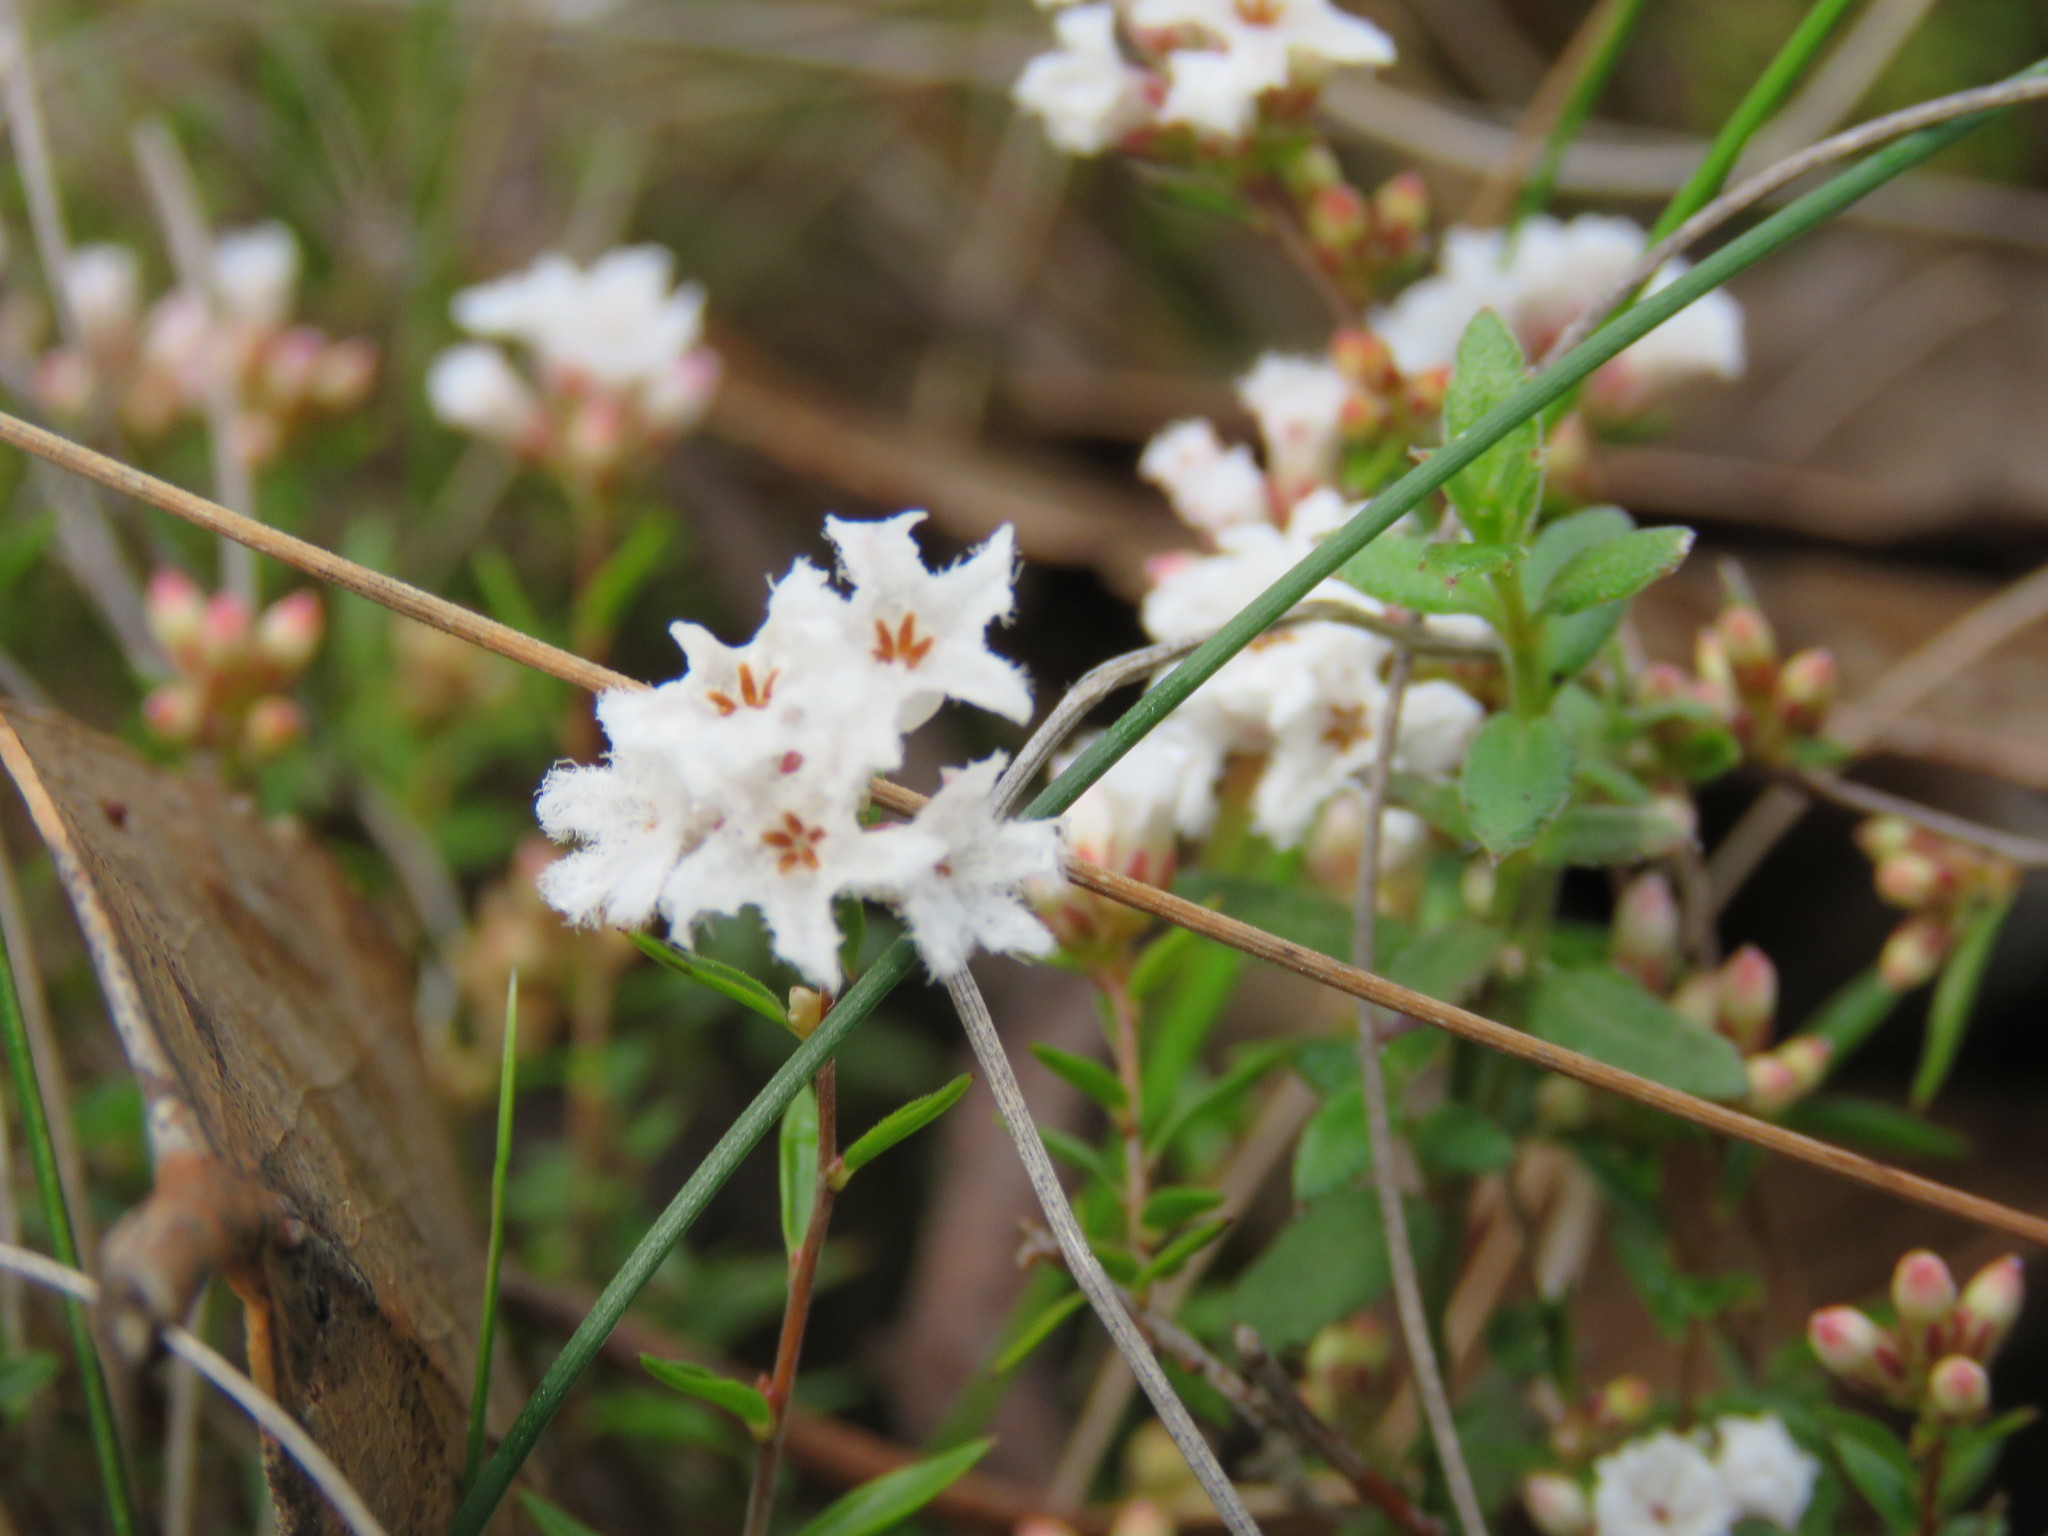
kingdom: Plantae
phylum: Tracheophyta
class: Magnoliopsida
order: Ericales
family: Ericaceae
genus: Leucopogon
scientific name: Leucopogon virgatus
